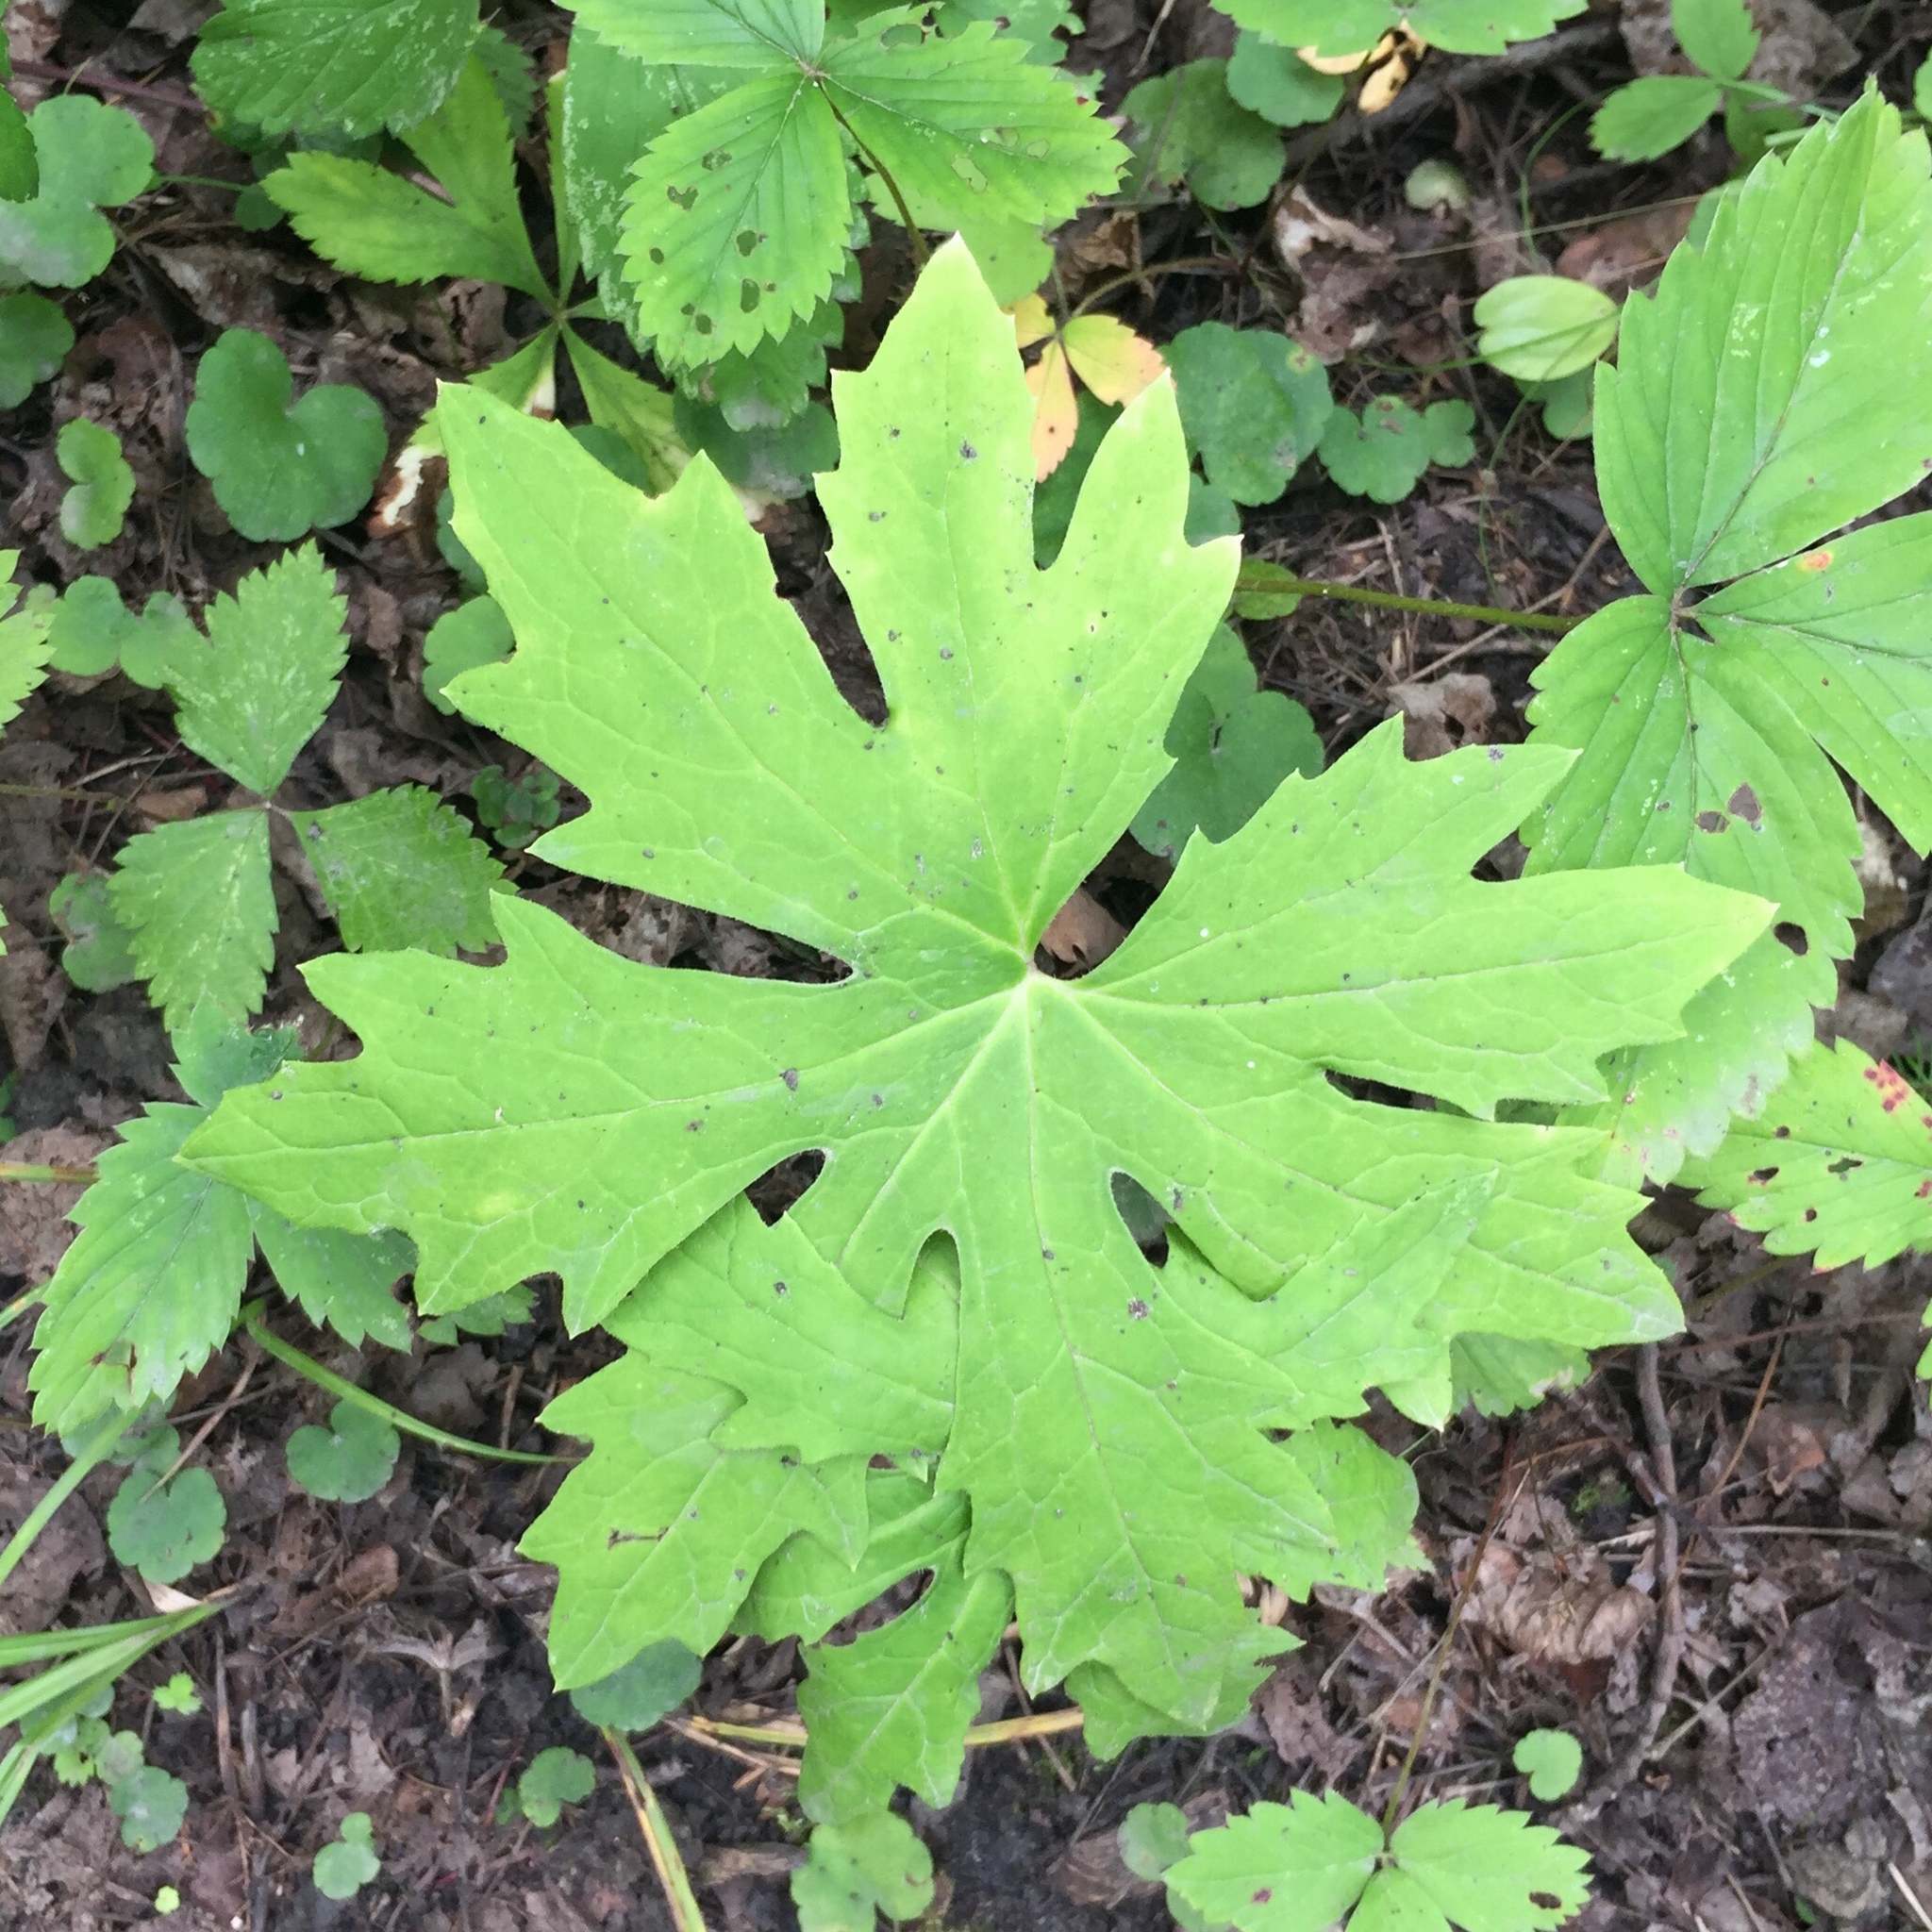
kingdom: Plantae
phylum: Tracheophyta
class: Magnoliopsida
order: Asterales
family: Asteraceae
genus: Petasites
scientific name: Petasites frigidus
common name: Arctic butterbur
